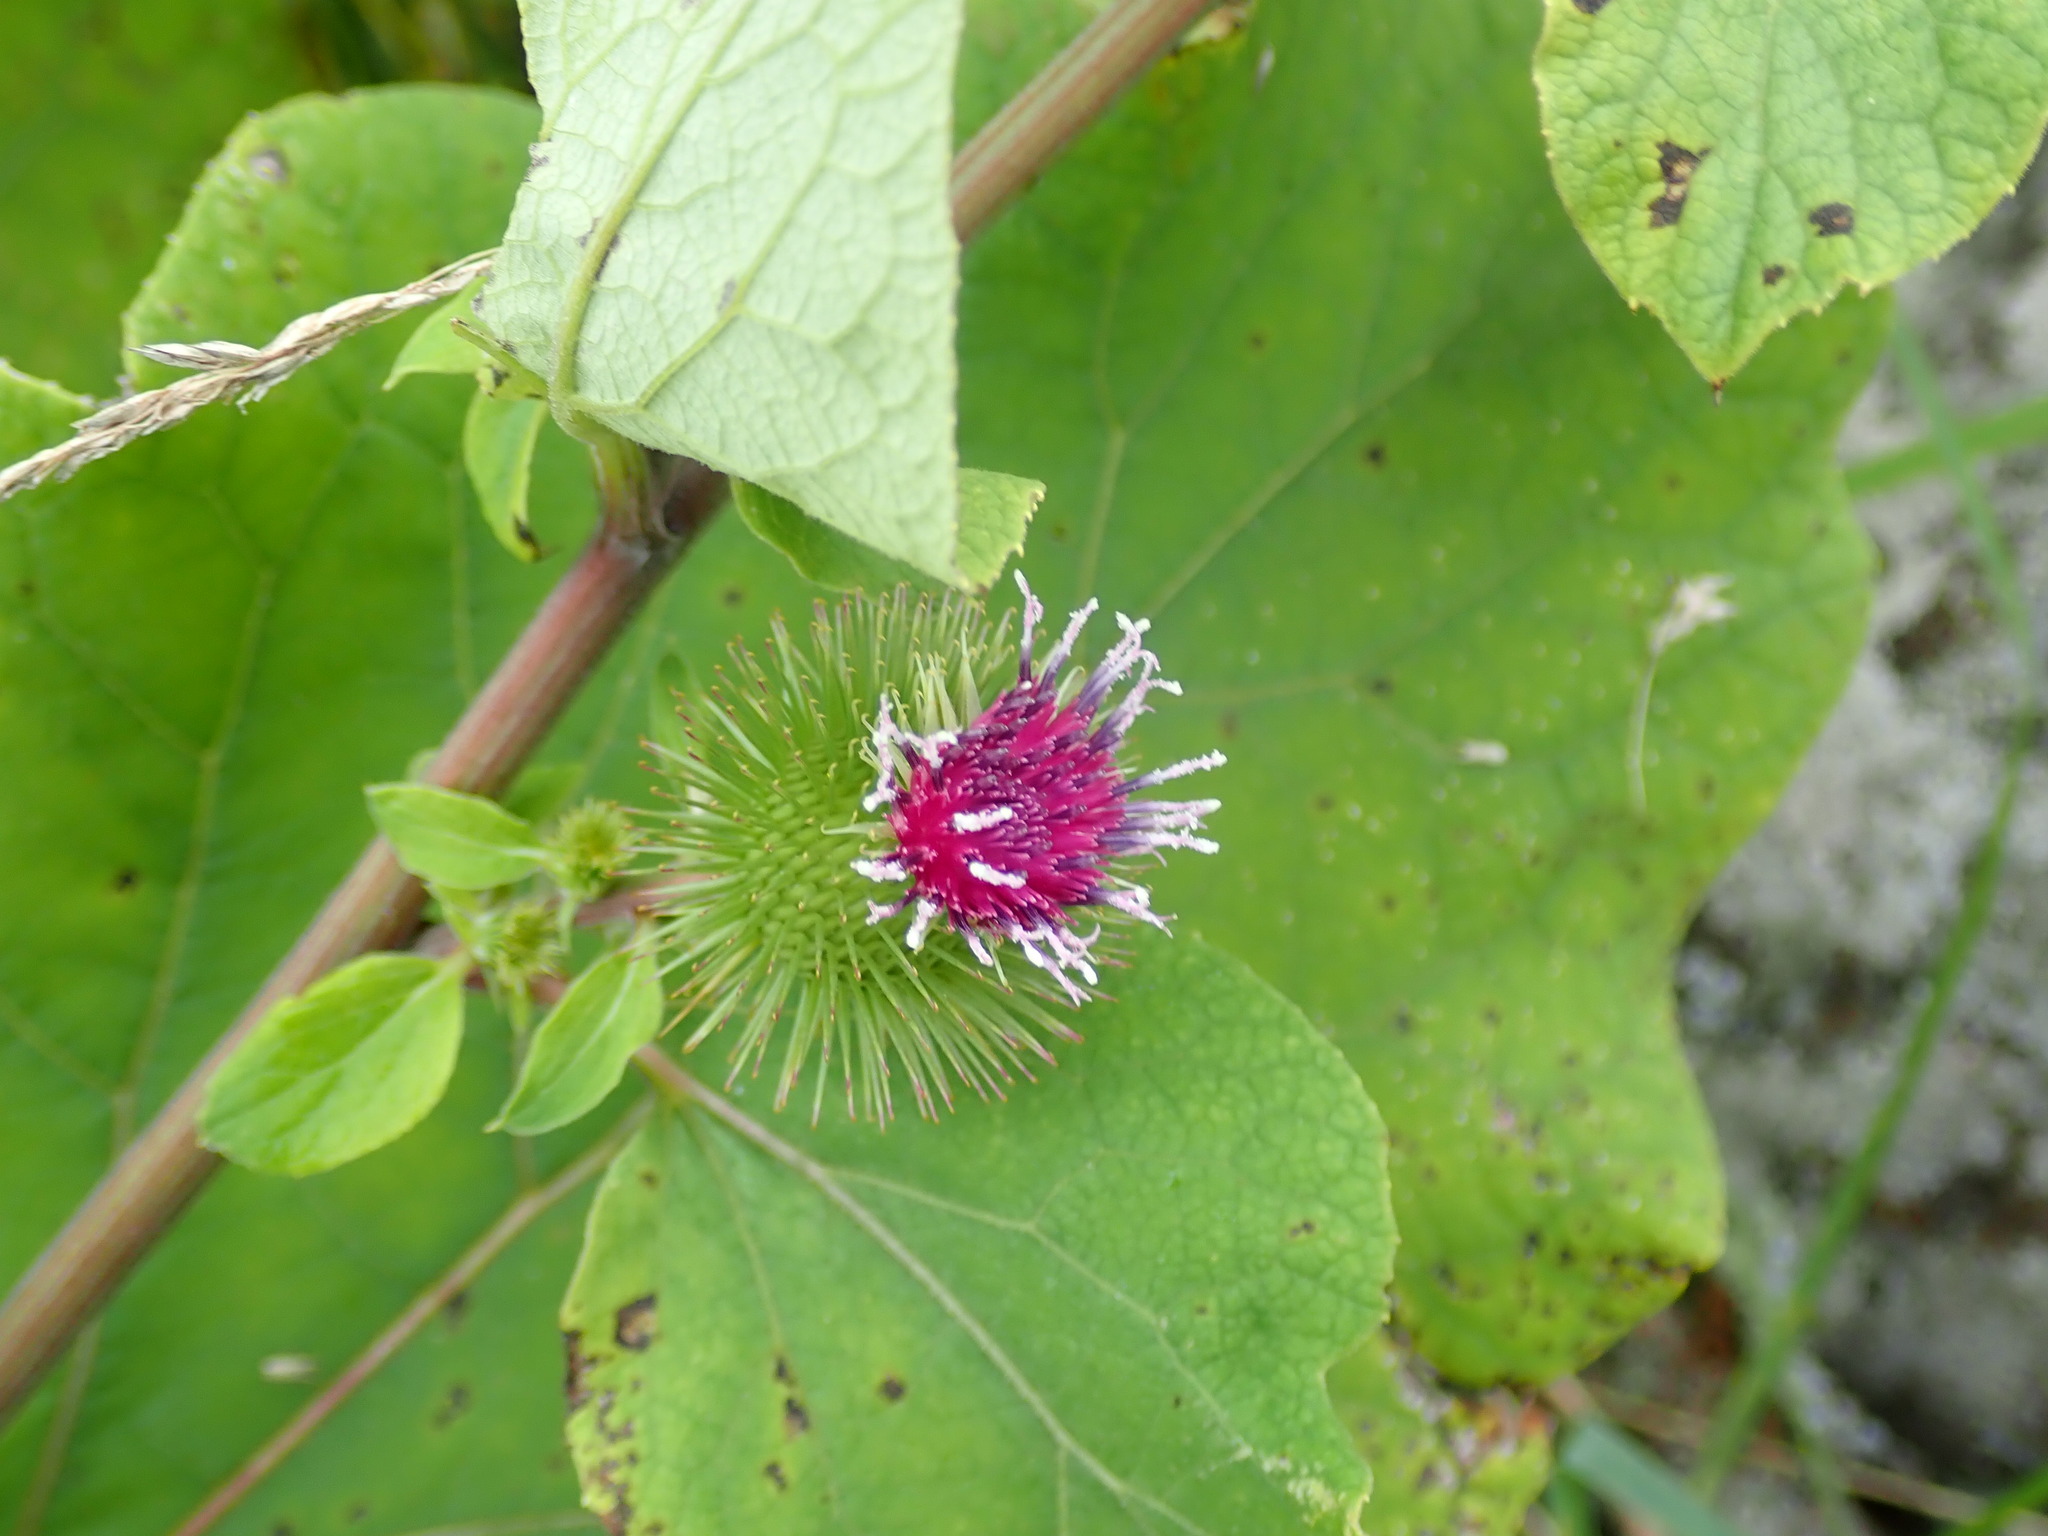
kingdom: Plantae
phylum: Tracheophyta
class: Magnoliopsida
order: Asterales
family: Asteraceae
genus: Arctium
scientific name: Arctium lappa
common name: Greater burdock
